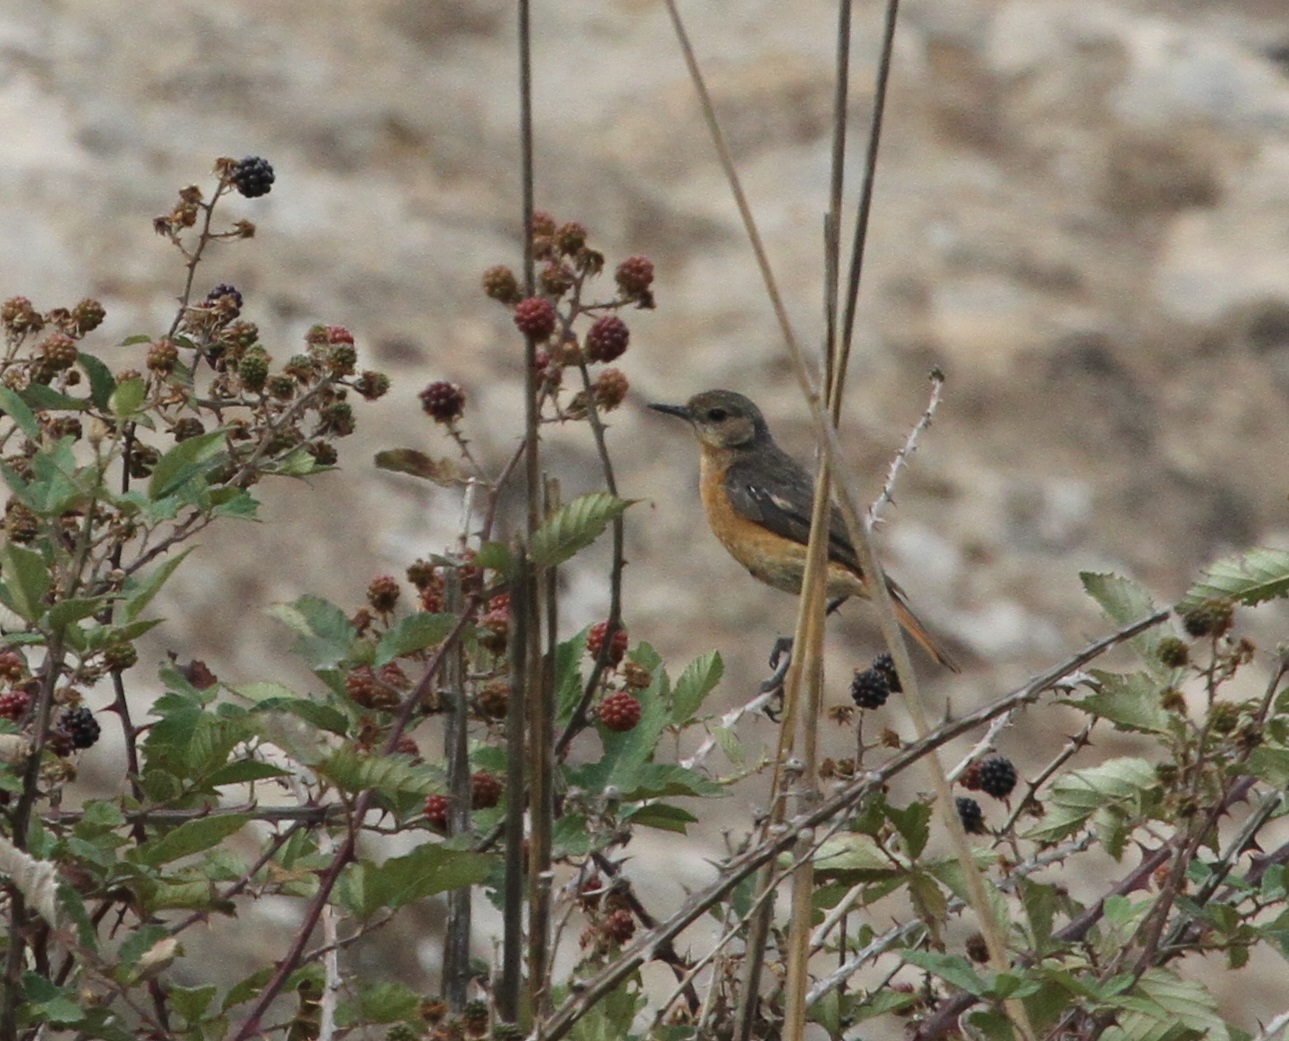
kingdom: Animalia
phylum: Chordata
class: Aves
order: Passeriformes
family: Muscicapidae
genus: Phoenicurus
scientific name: Phoenicurus moussieri
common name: Moussier's redstart
